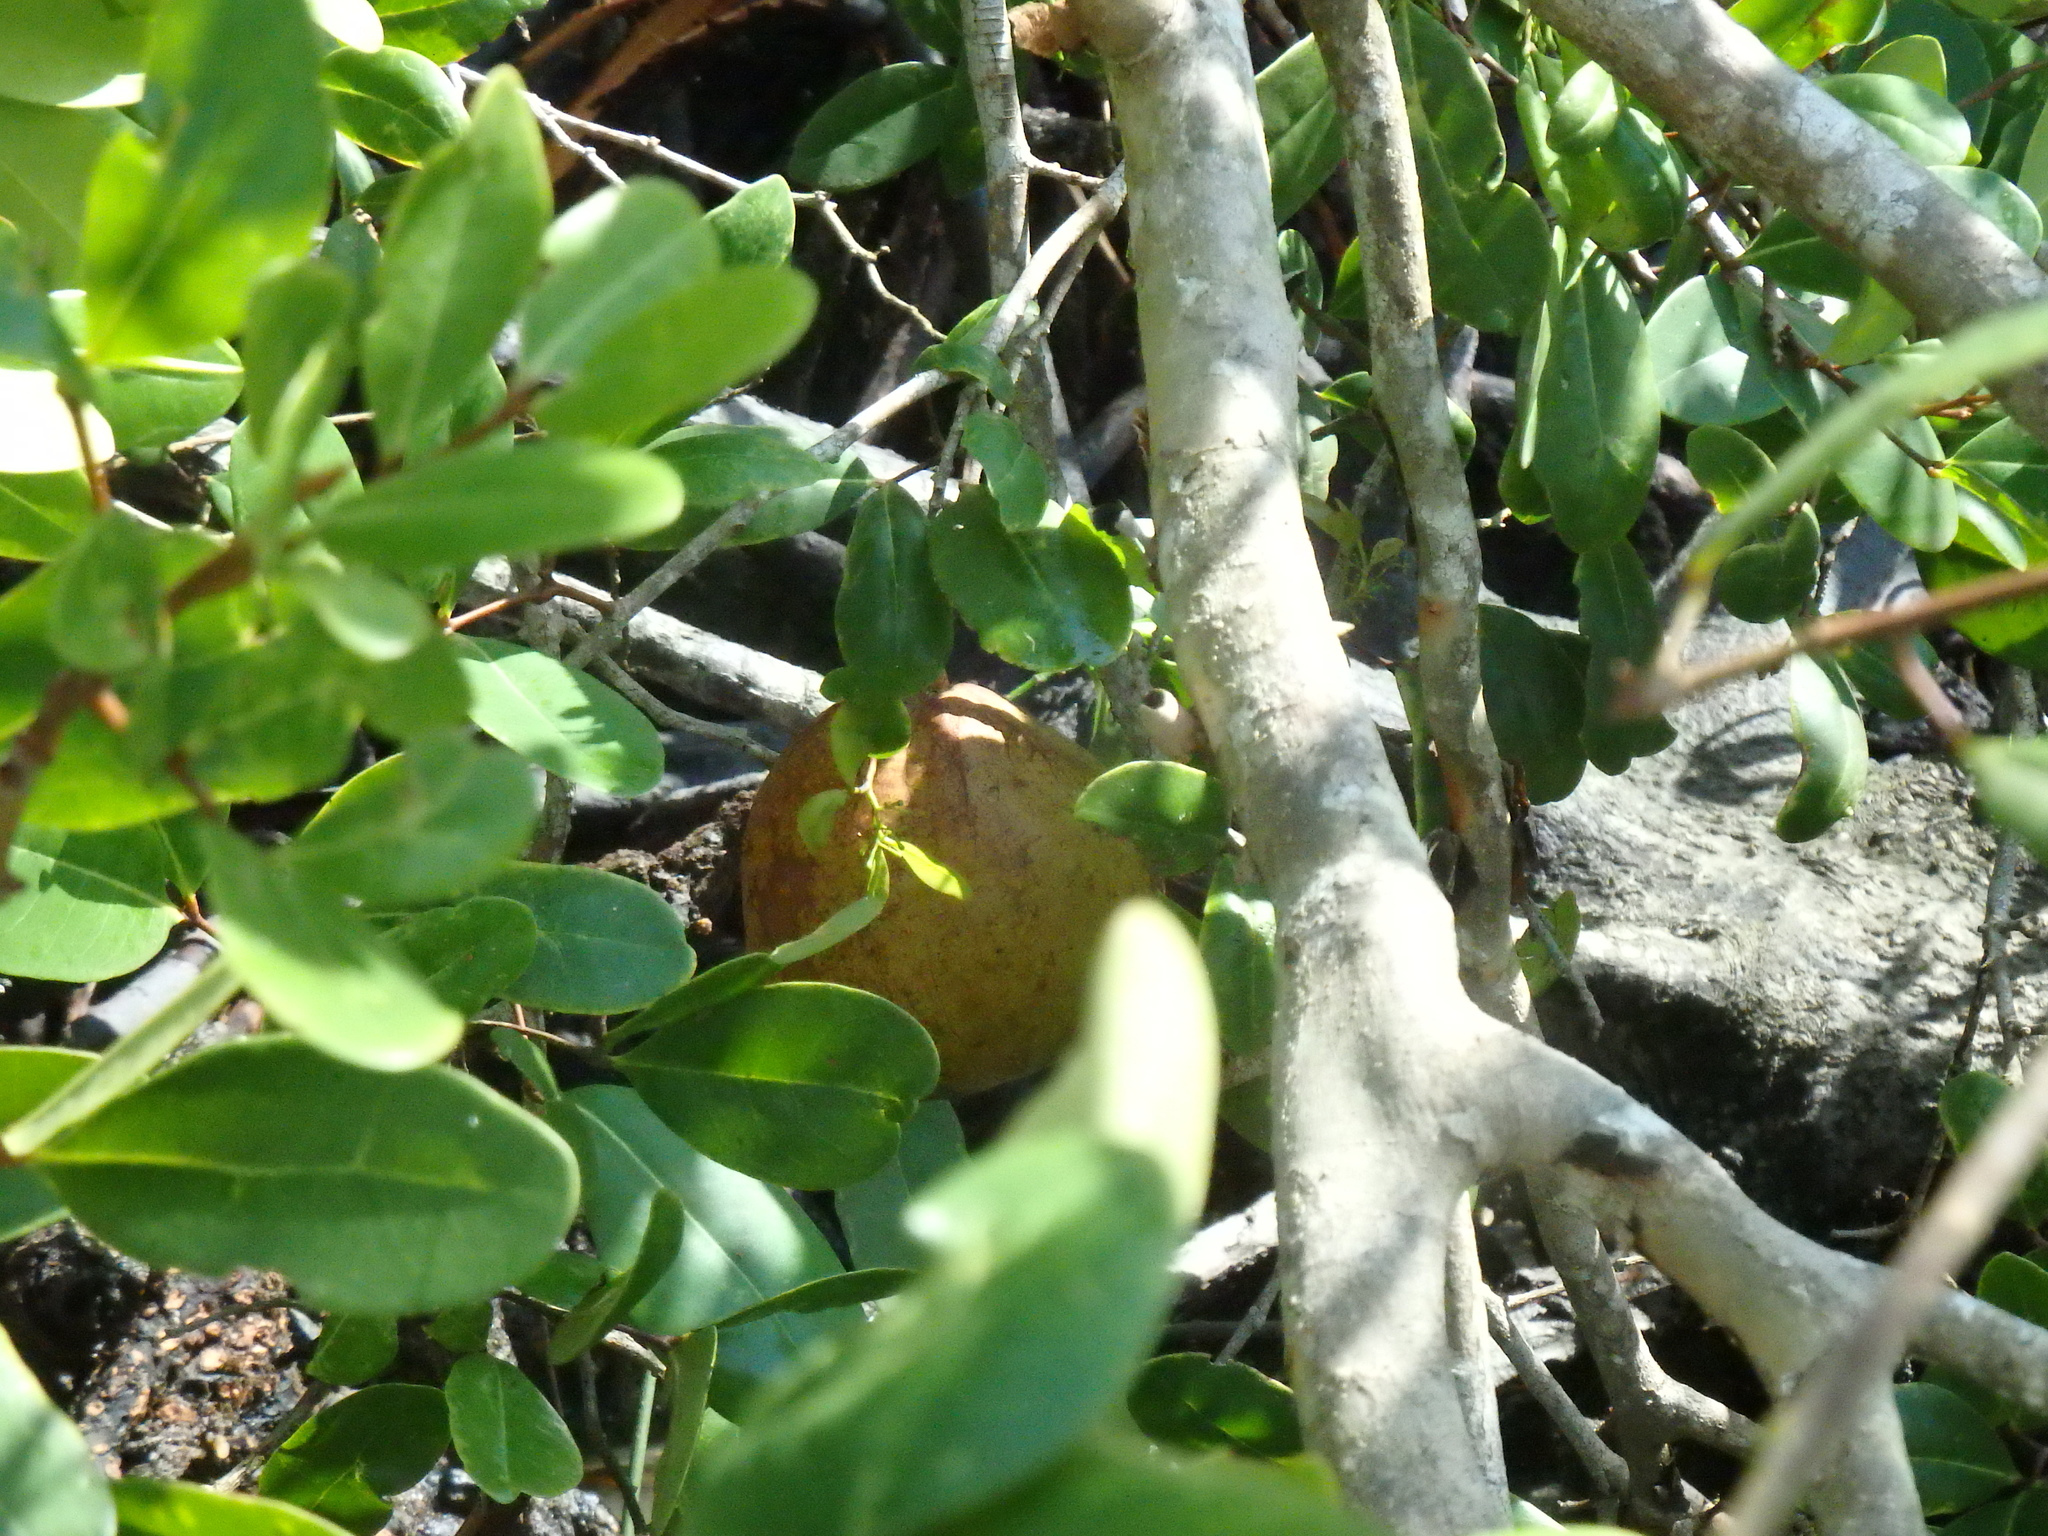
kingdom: Plantae
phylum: Tracheophyta
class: Magnoliopsida
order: Sapindales
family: Meliaceae
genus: Xylocarpus
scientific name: Xylocarpus granatum
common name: Apple mangrove
